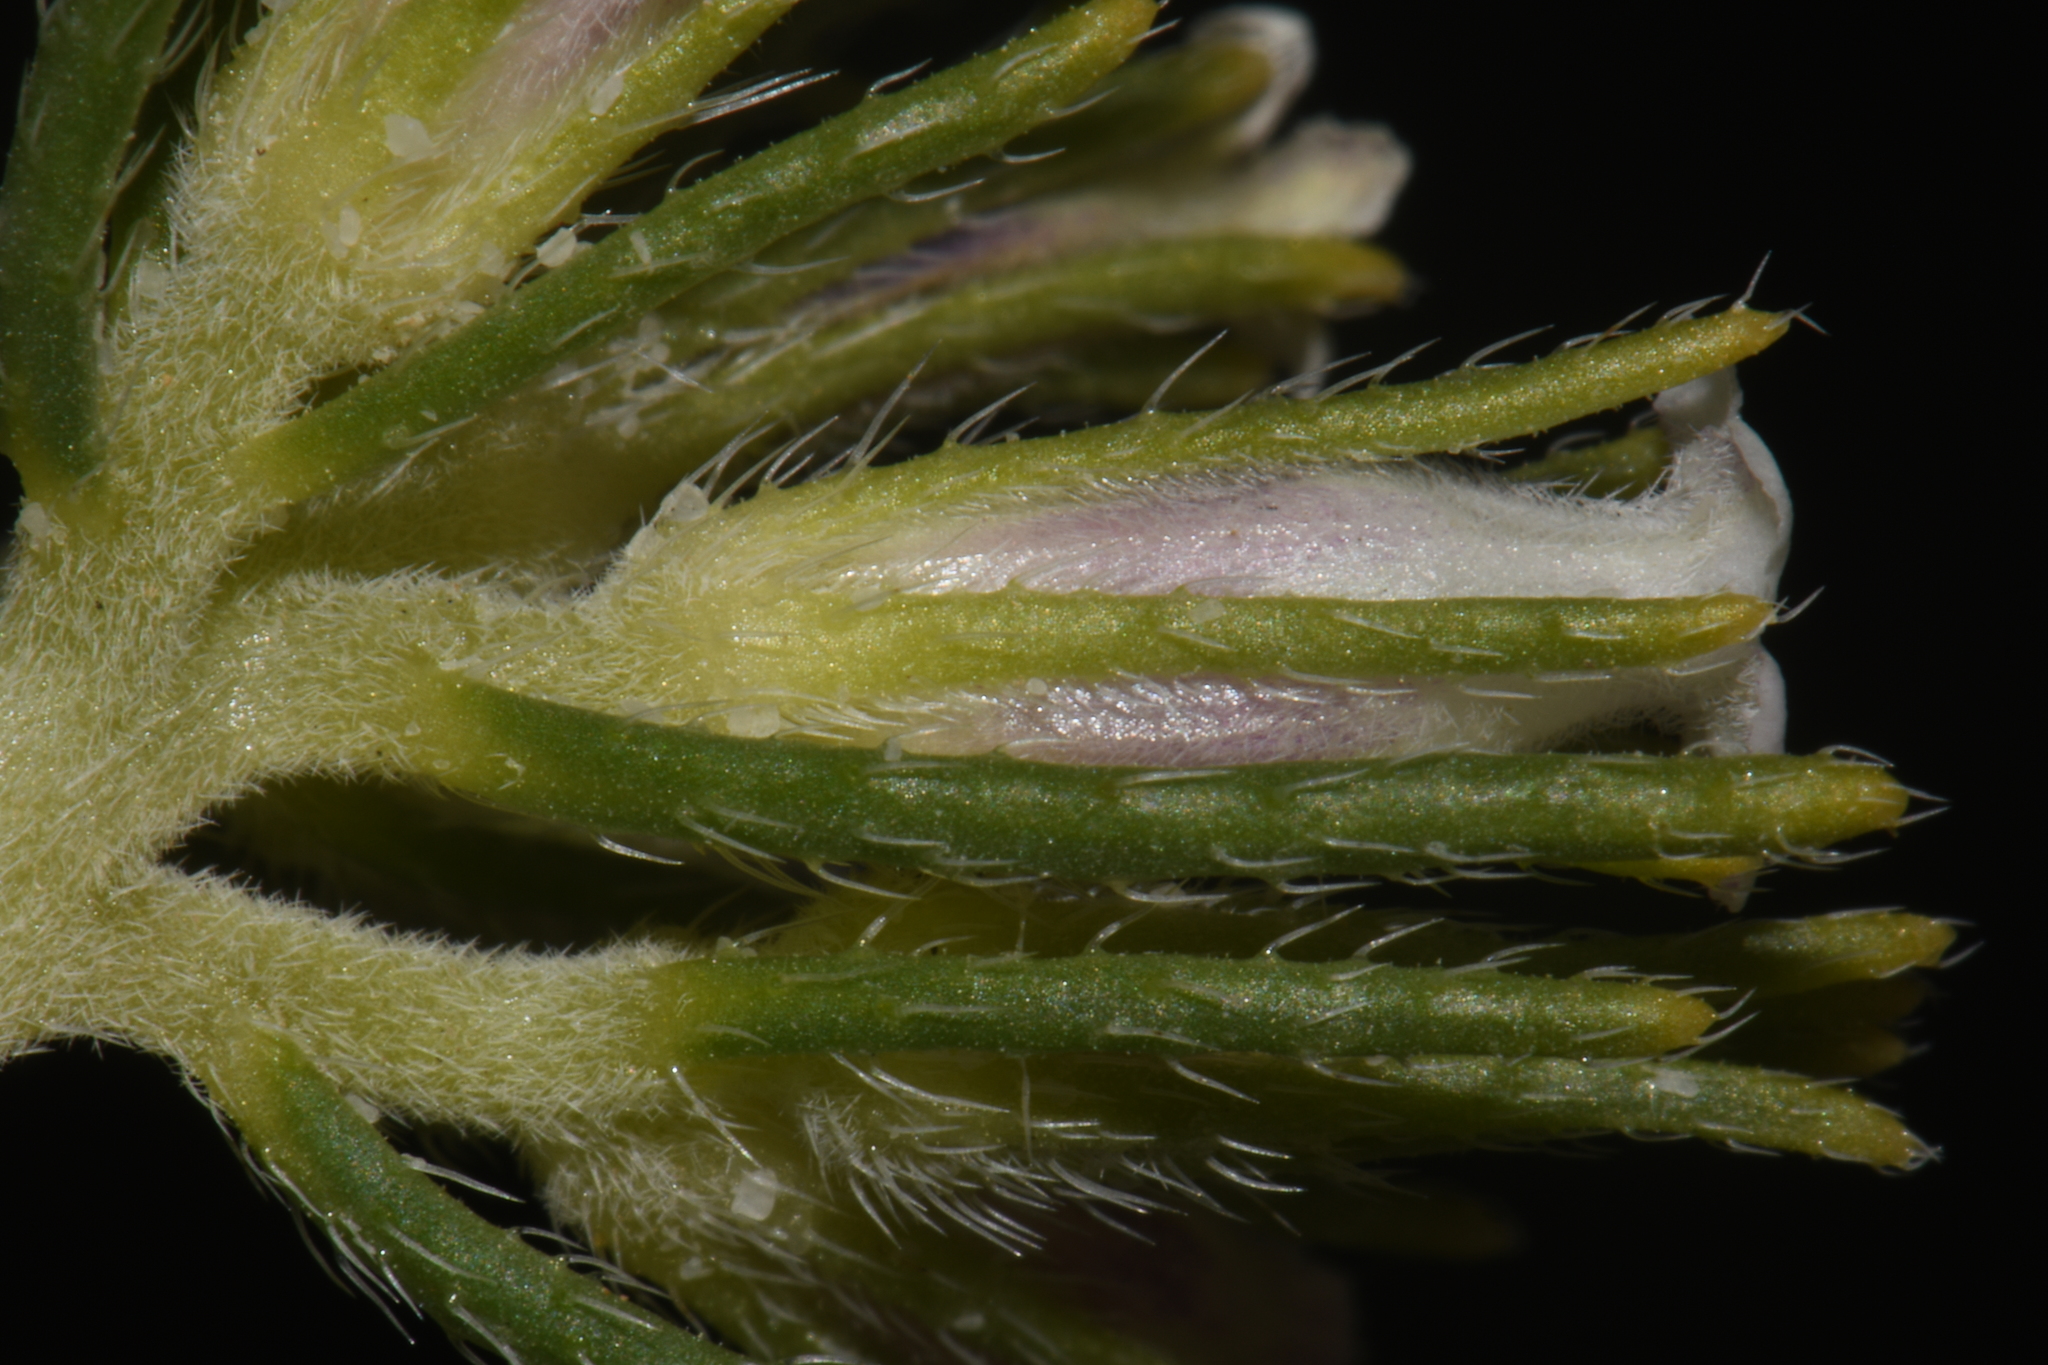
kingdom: Plantae
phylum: Tracheophyta
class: Magnoliopsida
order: Boraginales
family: Namaceae
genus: Andropus
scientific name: Andropus carnosus
